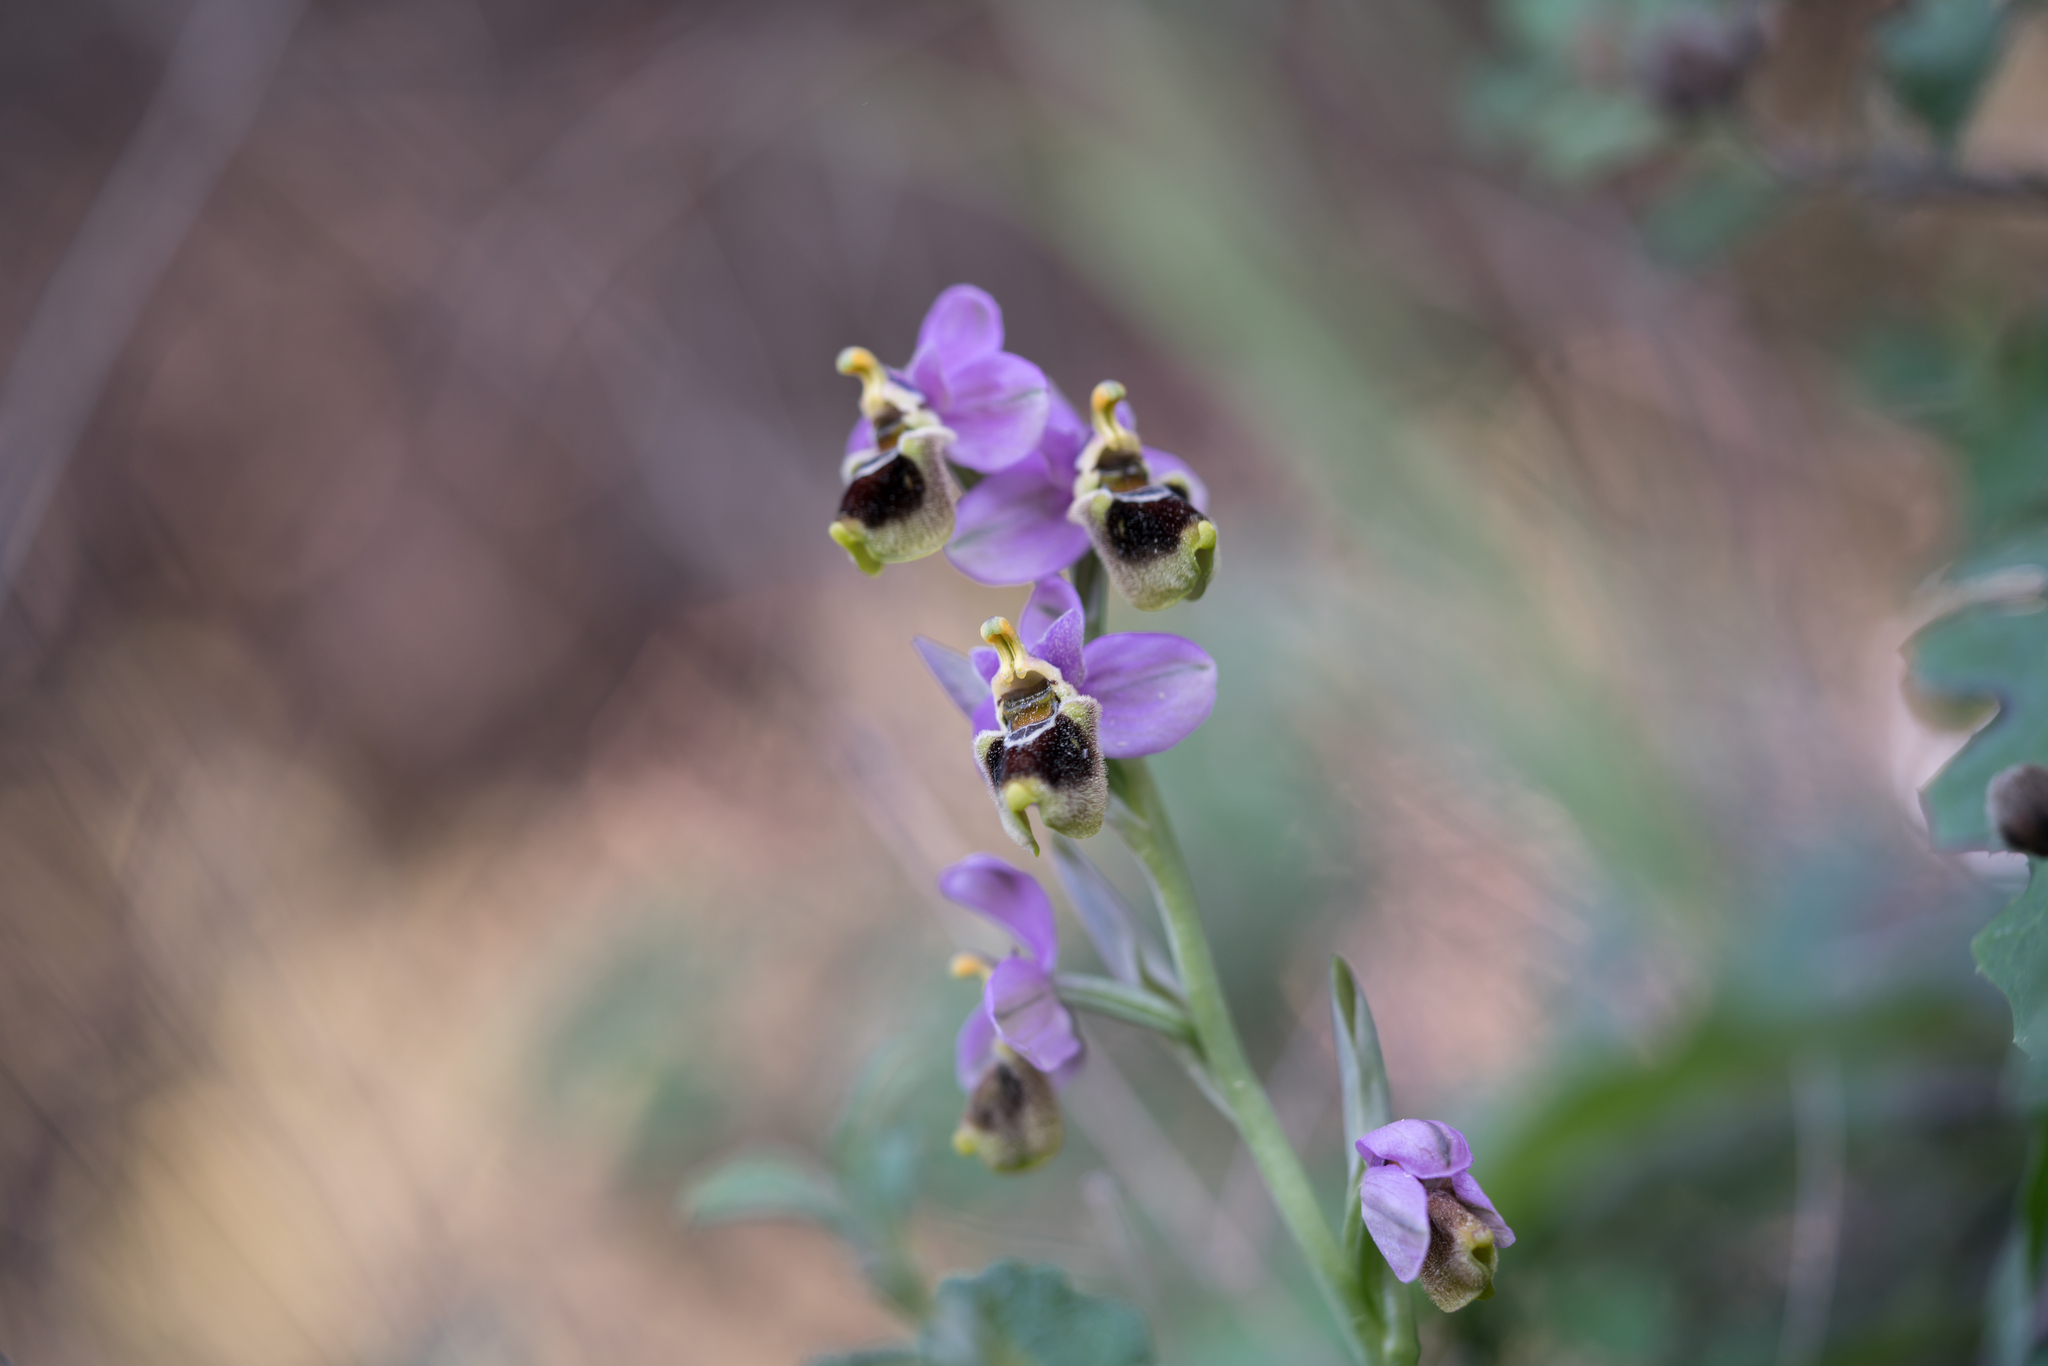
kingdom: Plantae
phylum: Tracheophyta
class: Liliopsida
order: Asparagales
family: Orchidaceae
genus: Ophrys
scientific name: Ophrys tenthredinifera
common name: Sawfly orchid
